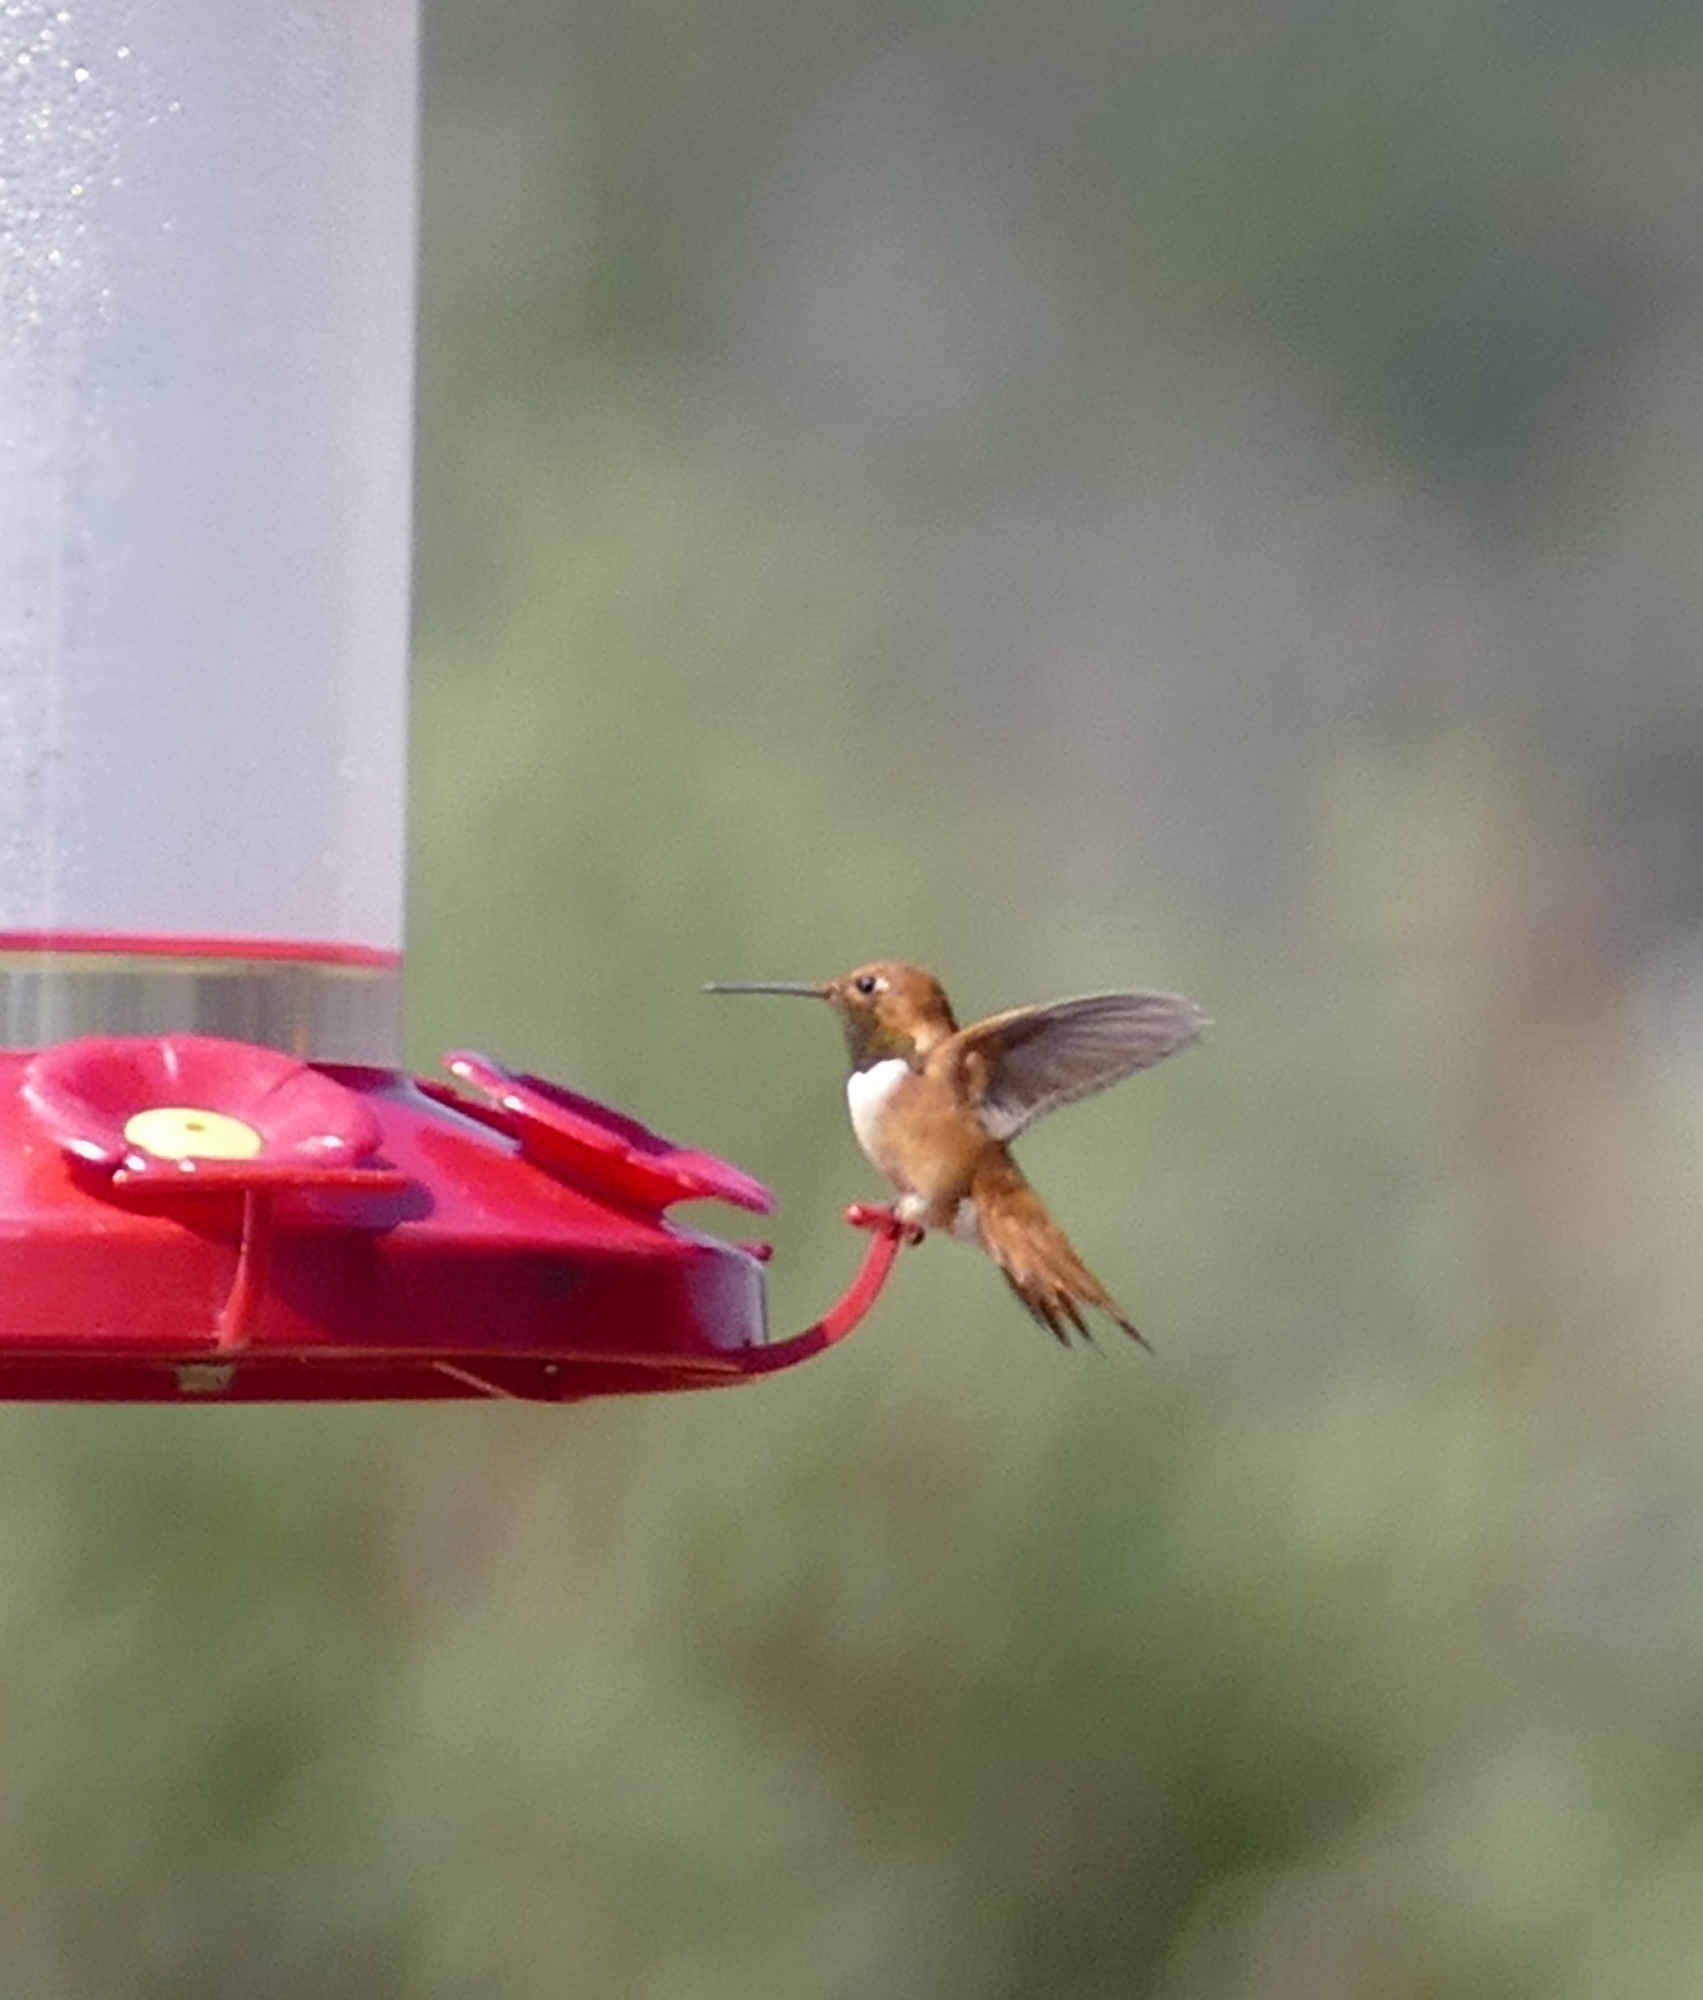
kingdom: Animalia
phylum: Chordata
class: Aves
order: Apodiformes
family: Trochilidae
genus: Selasphorus
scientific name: Selasphorus rufus
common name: Rufous hummingbird
